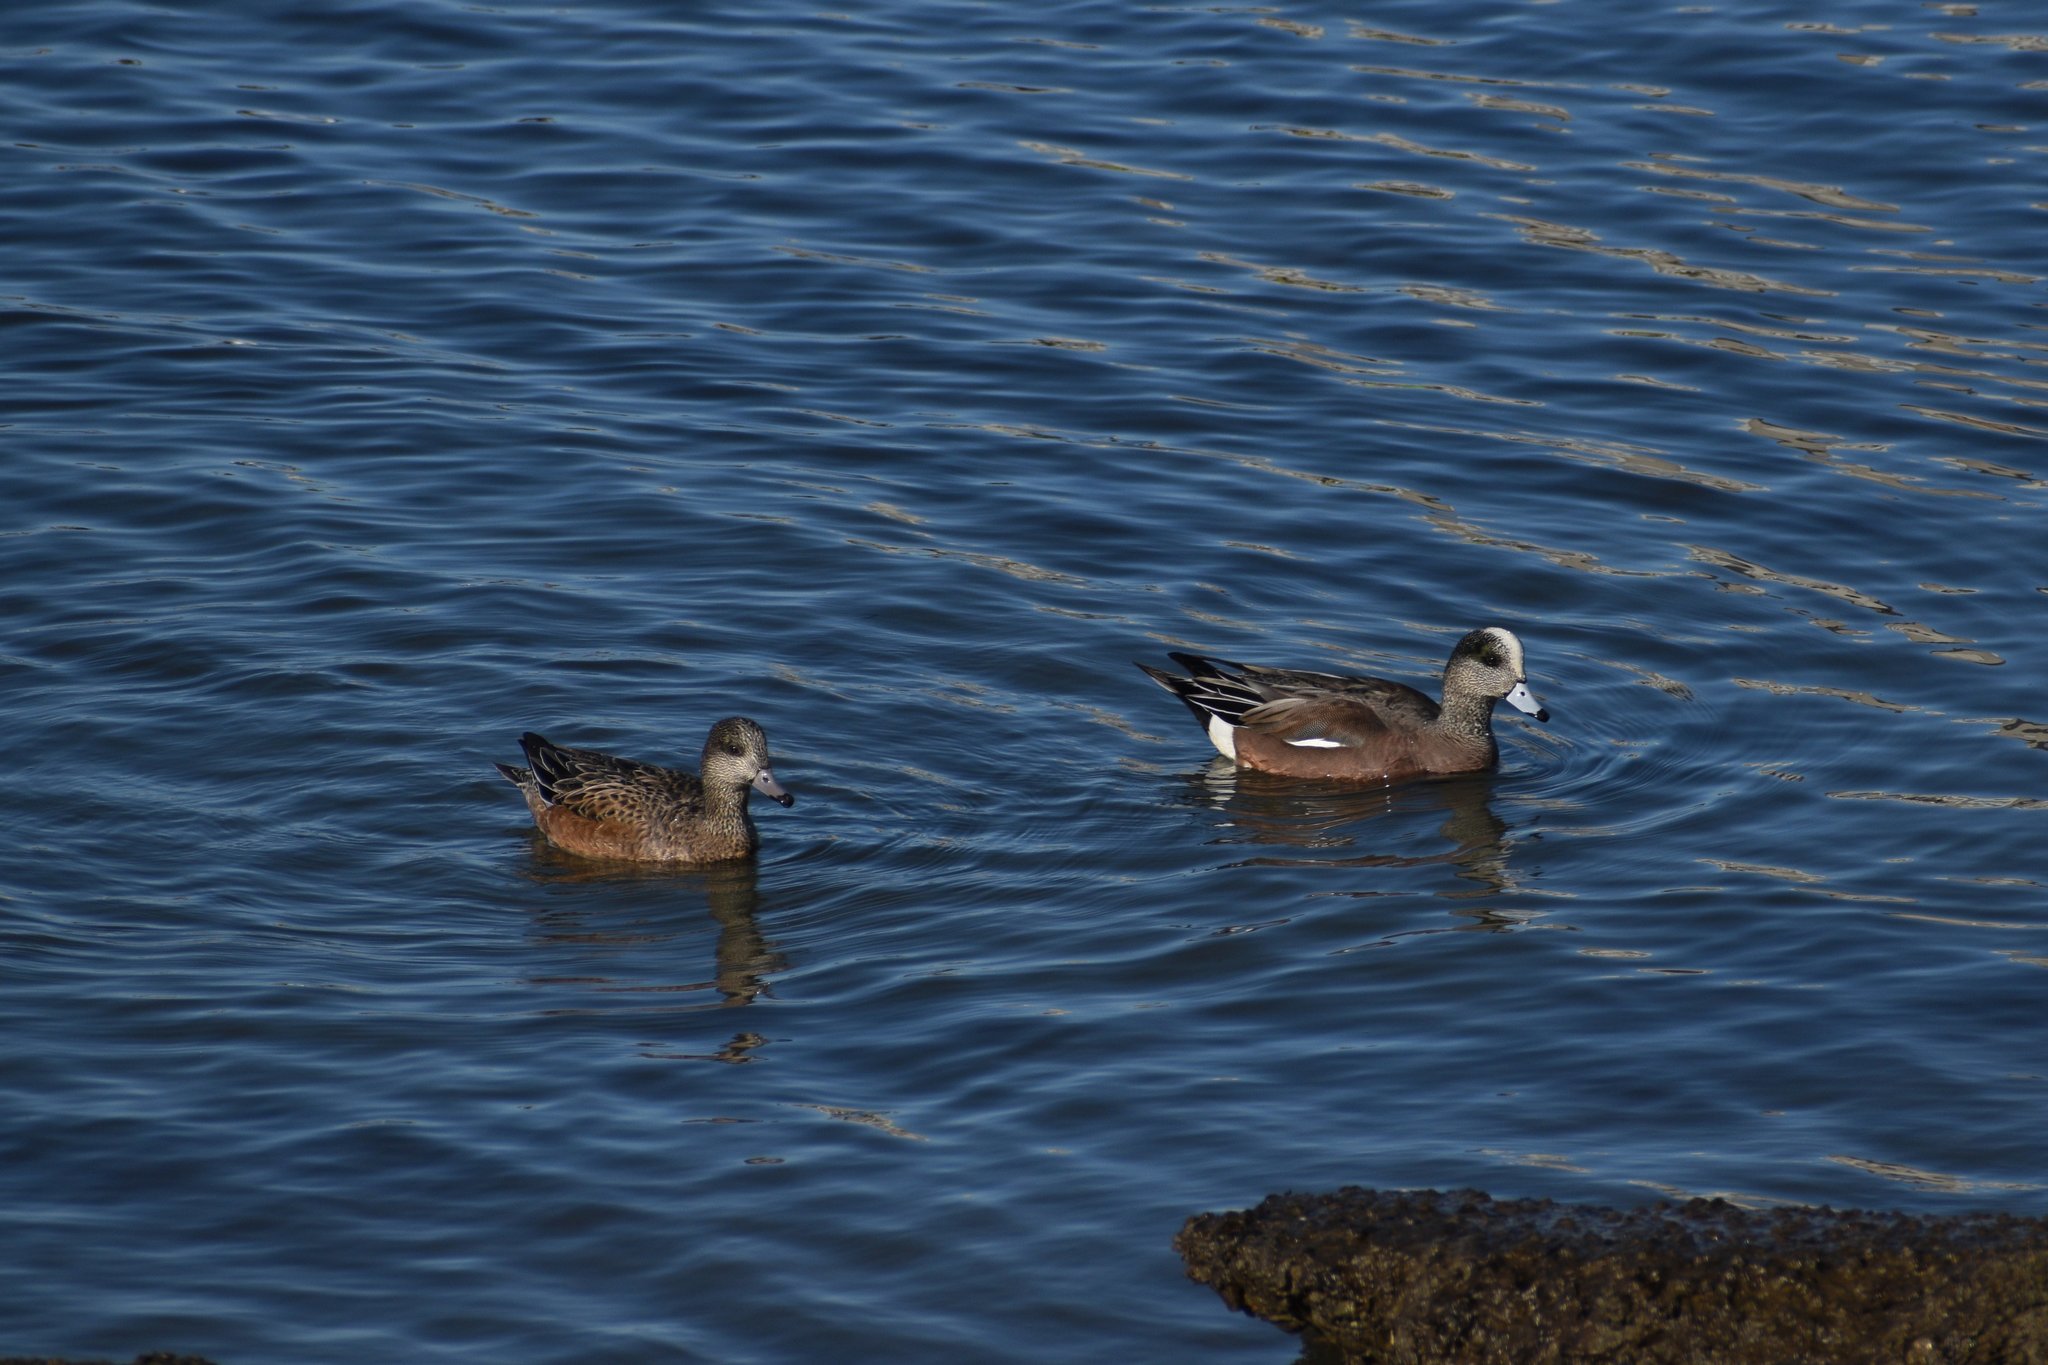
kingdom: Animalia
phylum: Chordata
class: Aves
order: Anseriformes
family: Anatidae
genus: Mareca
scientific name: Mareca americana
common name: American wigeon
